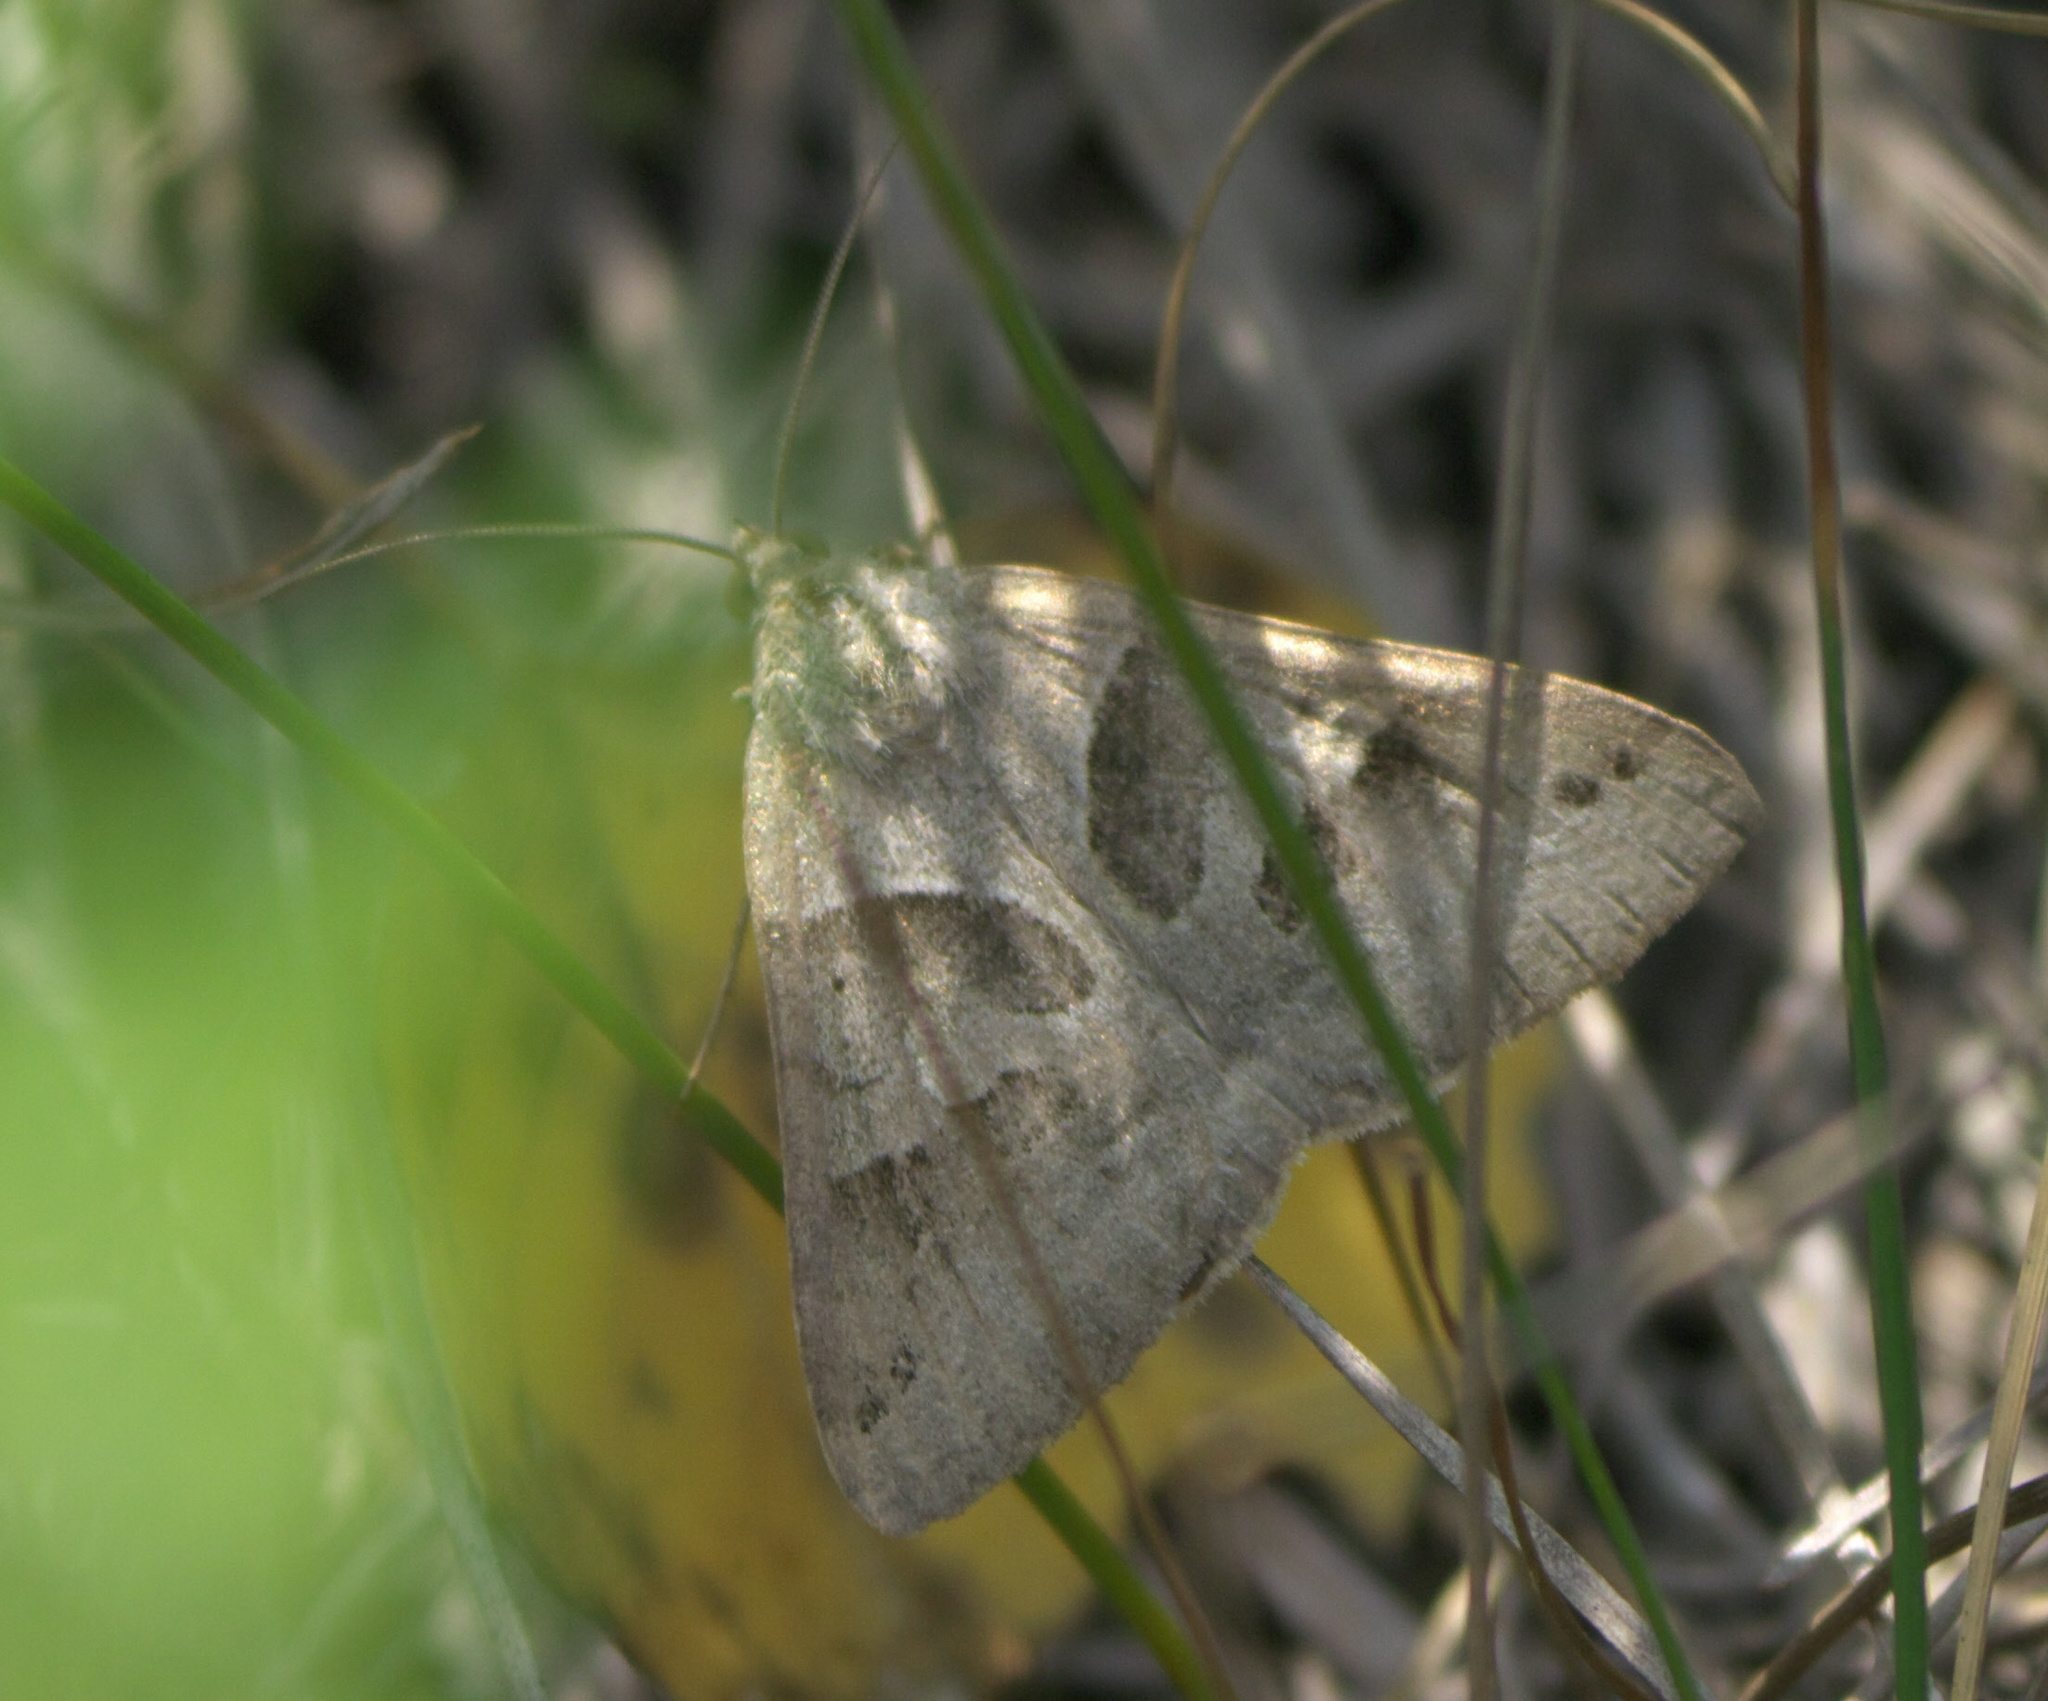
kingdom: Animalia
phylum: Arthropoda
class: Insecta
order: Lepidoptera
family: Erebidae
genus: Caenurgina
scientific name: Caenurgina erechtea
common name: Forage looper moth
